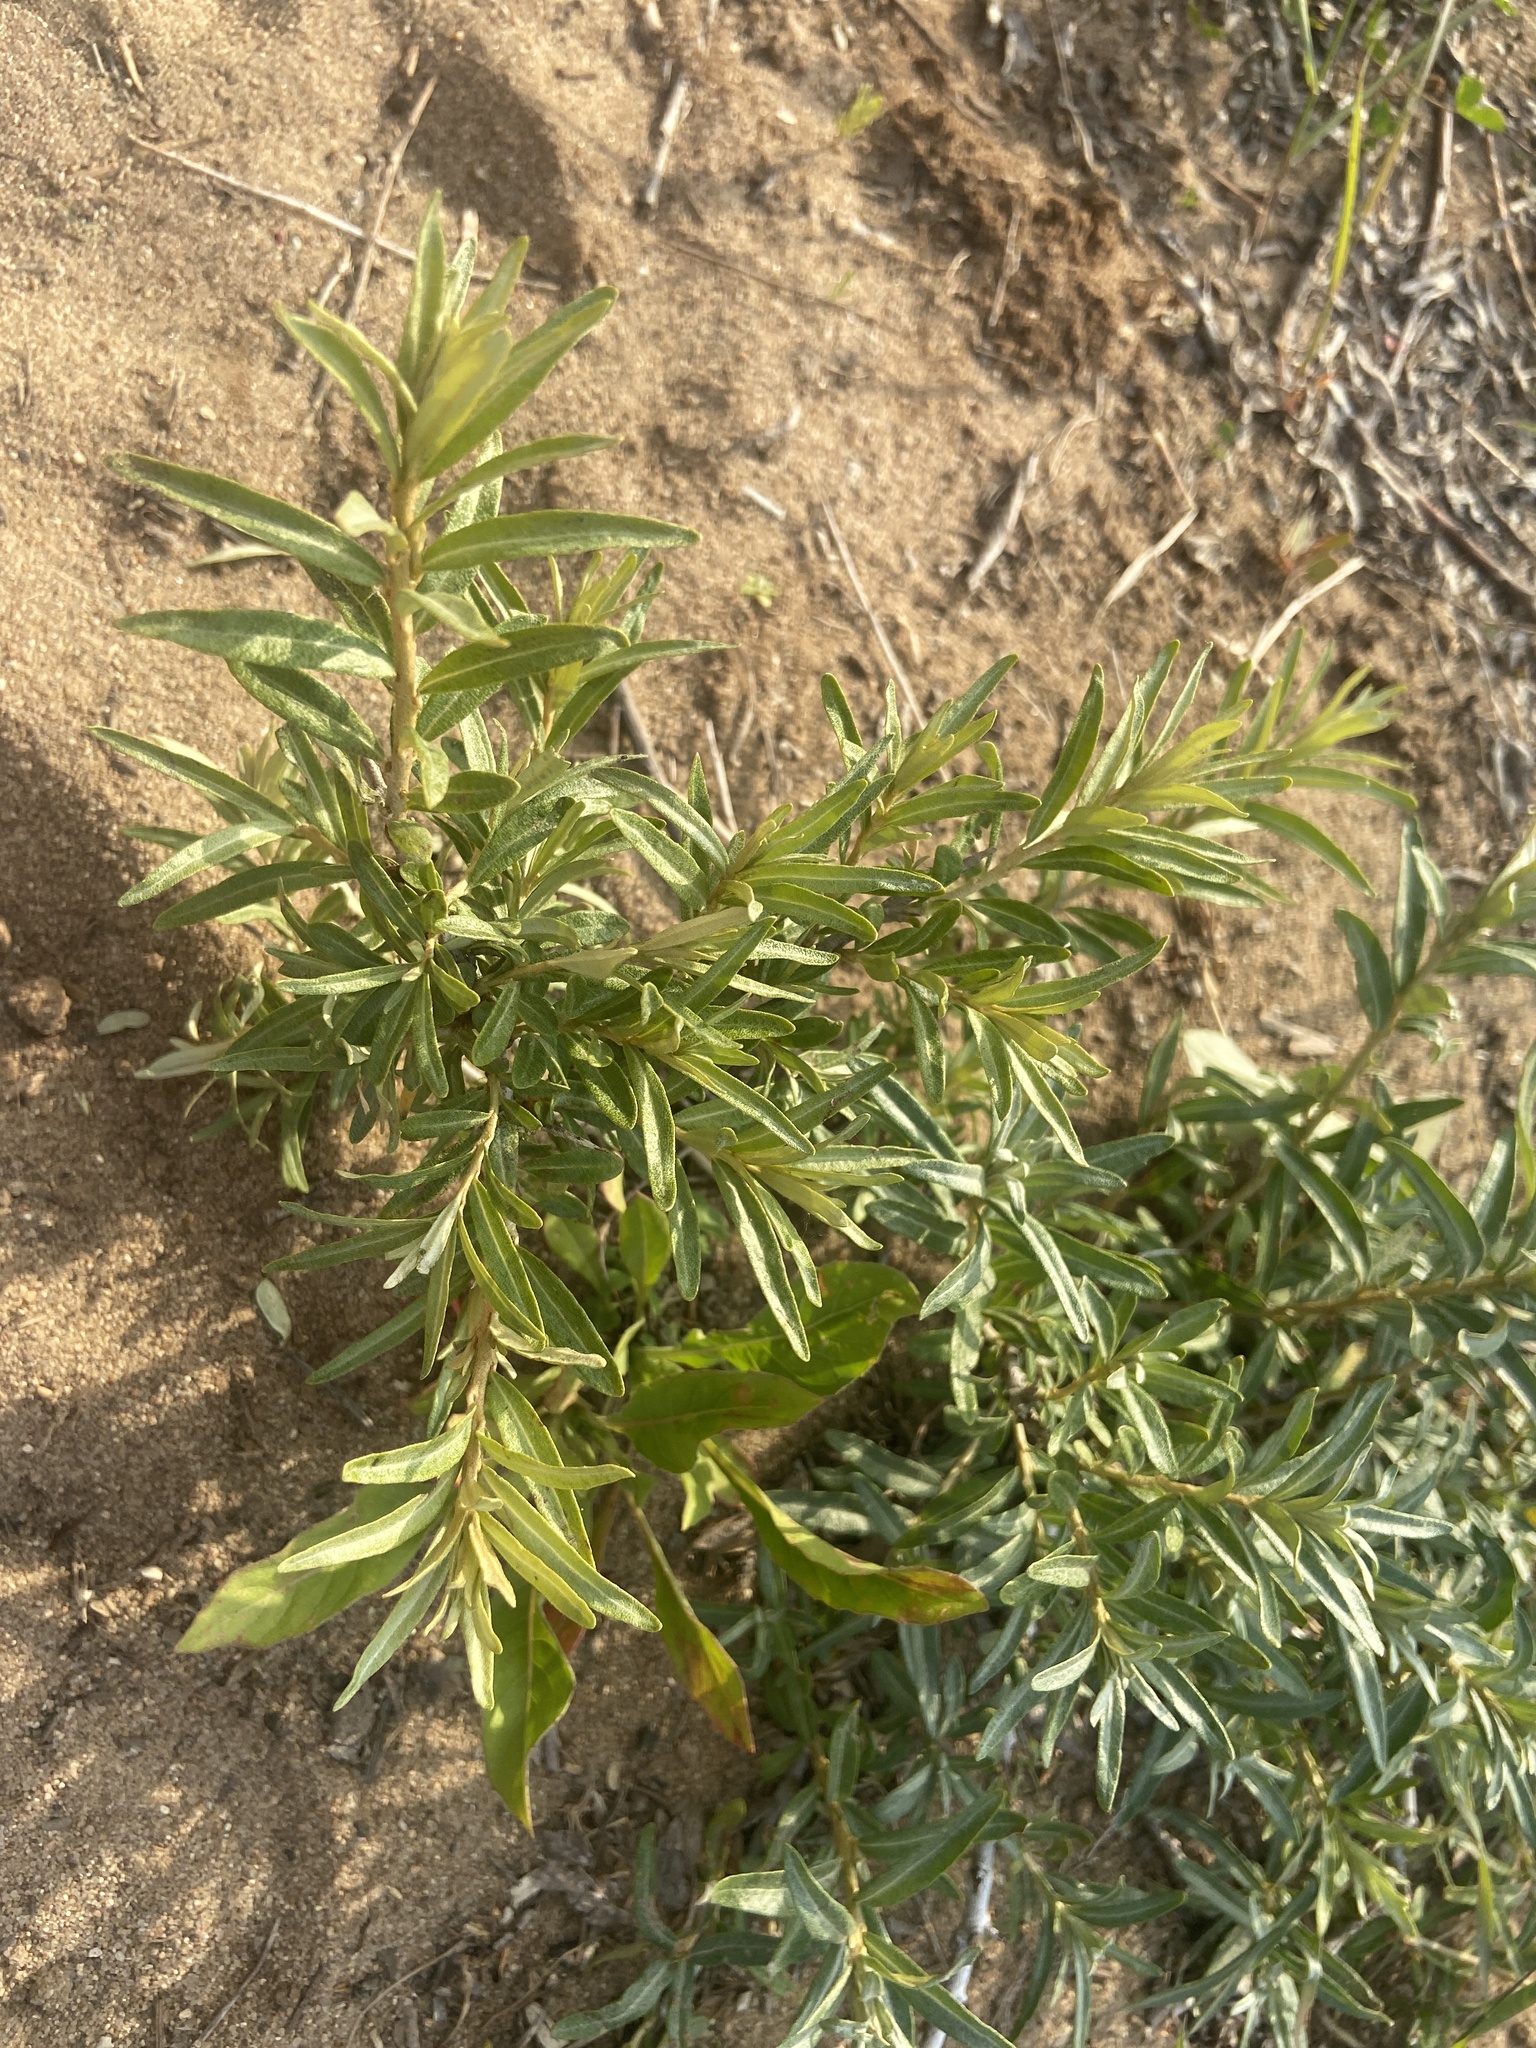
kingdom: Plantae
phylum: Tracheophyta
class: Magnoliopsida
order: Rosales
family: Elaeagnaceae
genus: Hippophae
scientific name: Hippophae rhamnoides
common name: Sea-buckthorn
